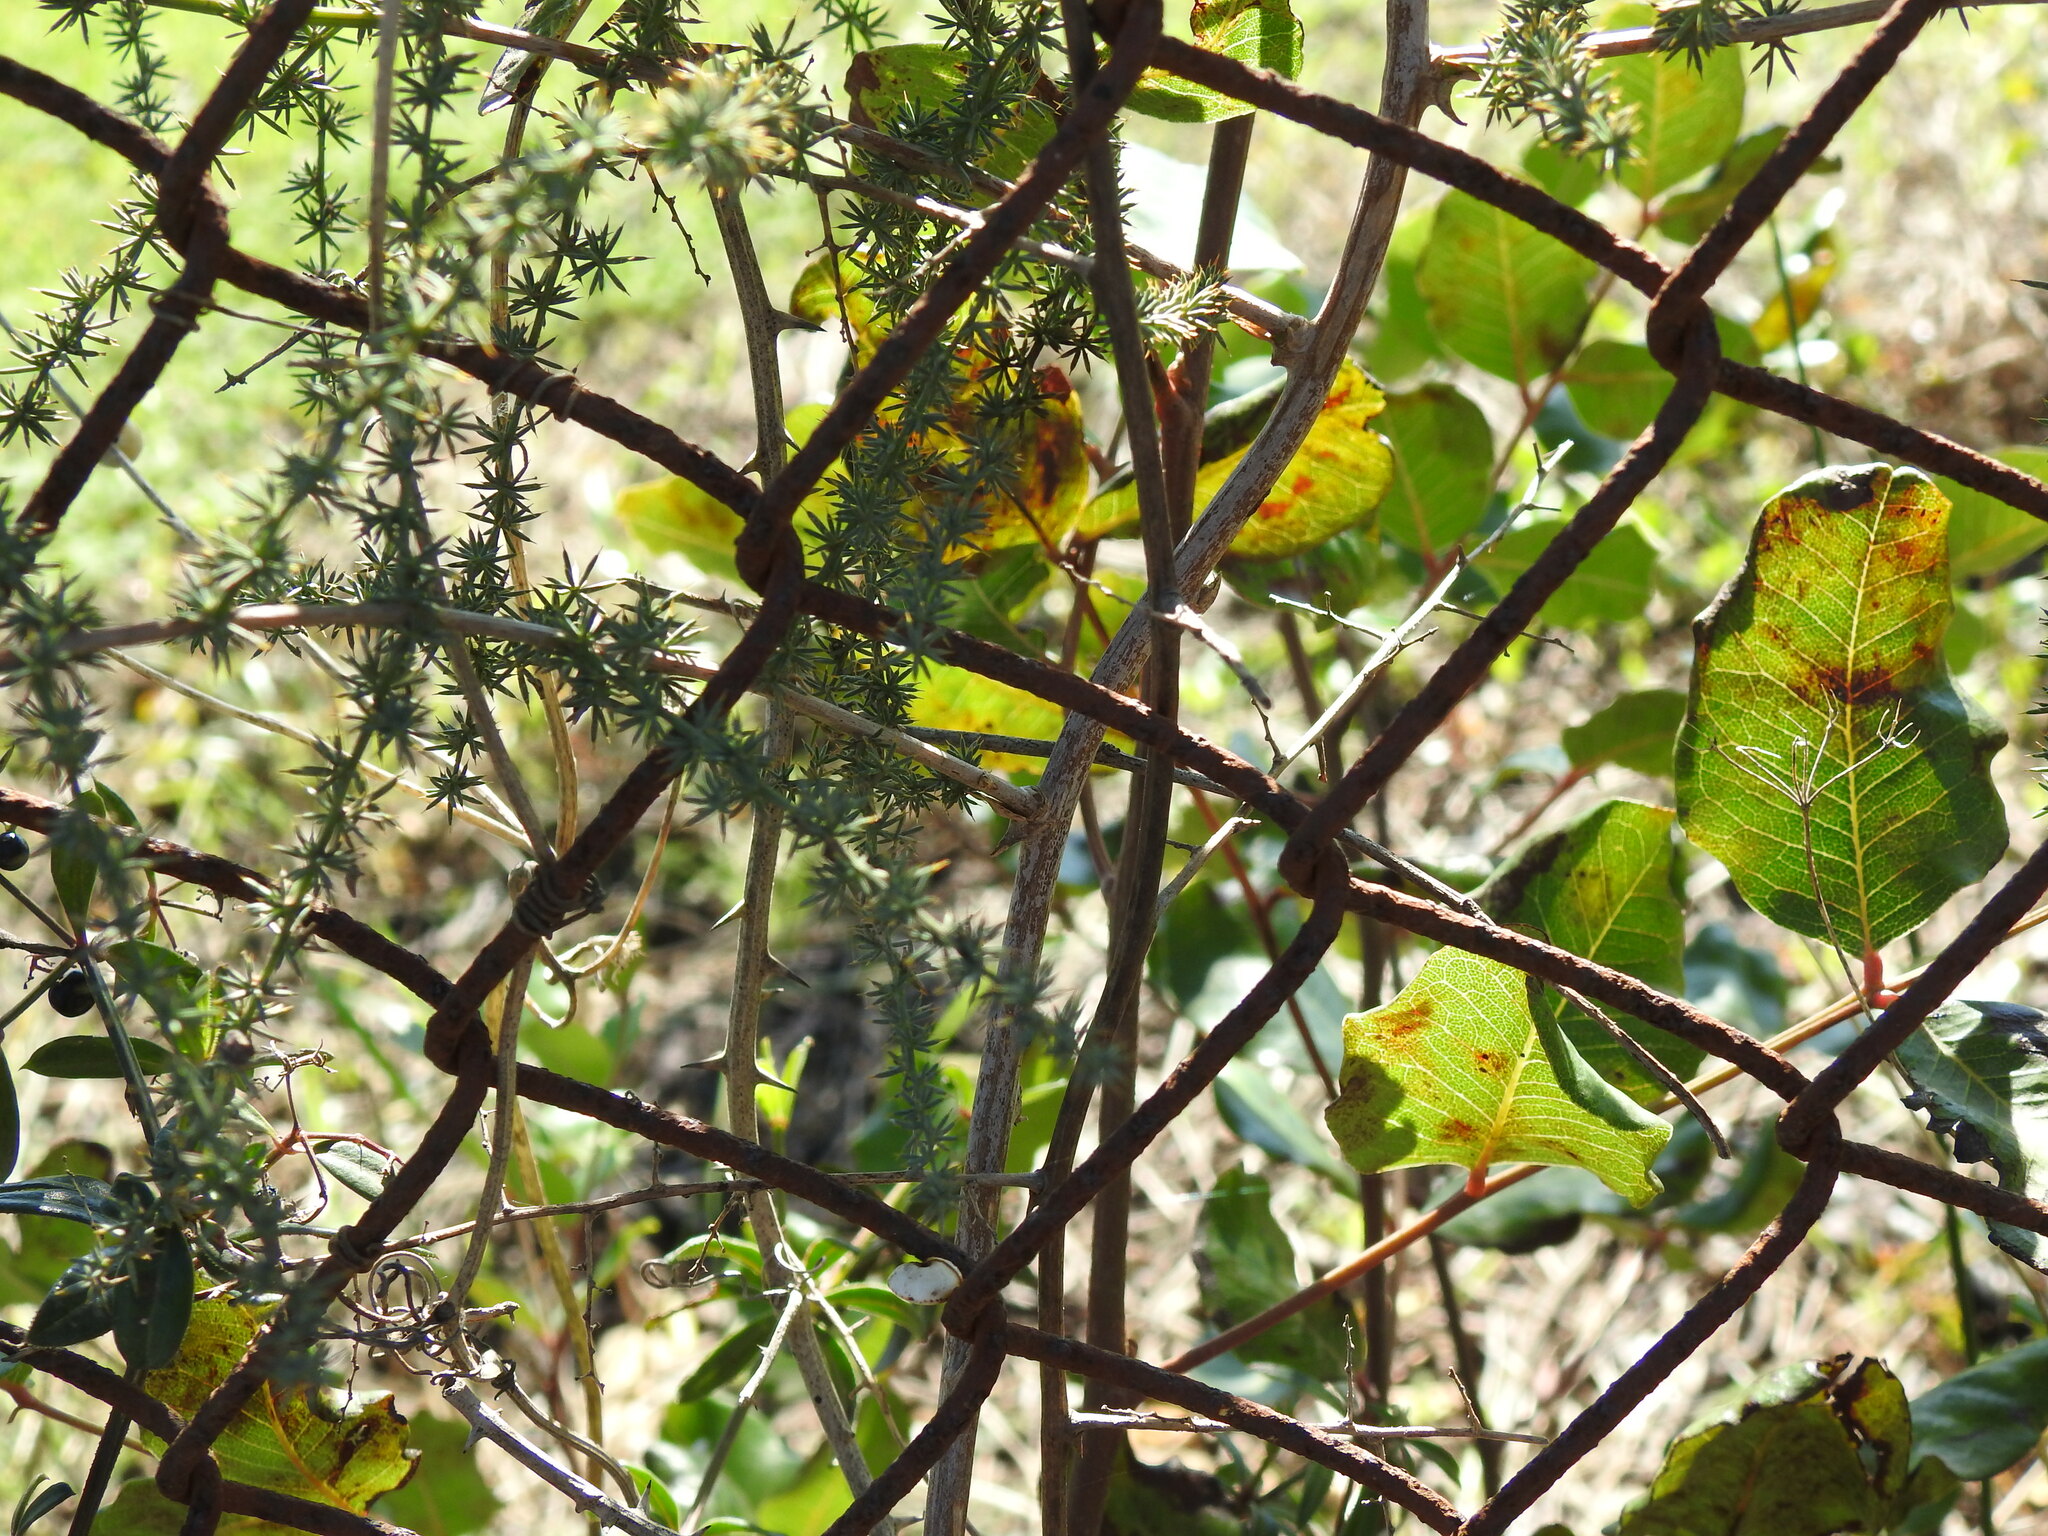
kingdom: Plantae
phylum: Tracheophyta
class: Liliopsida
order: Asparagales
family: Asparagaceae
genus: Asparagus
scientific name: Asparagus acutifolius
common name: Wild asparagus
